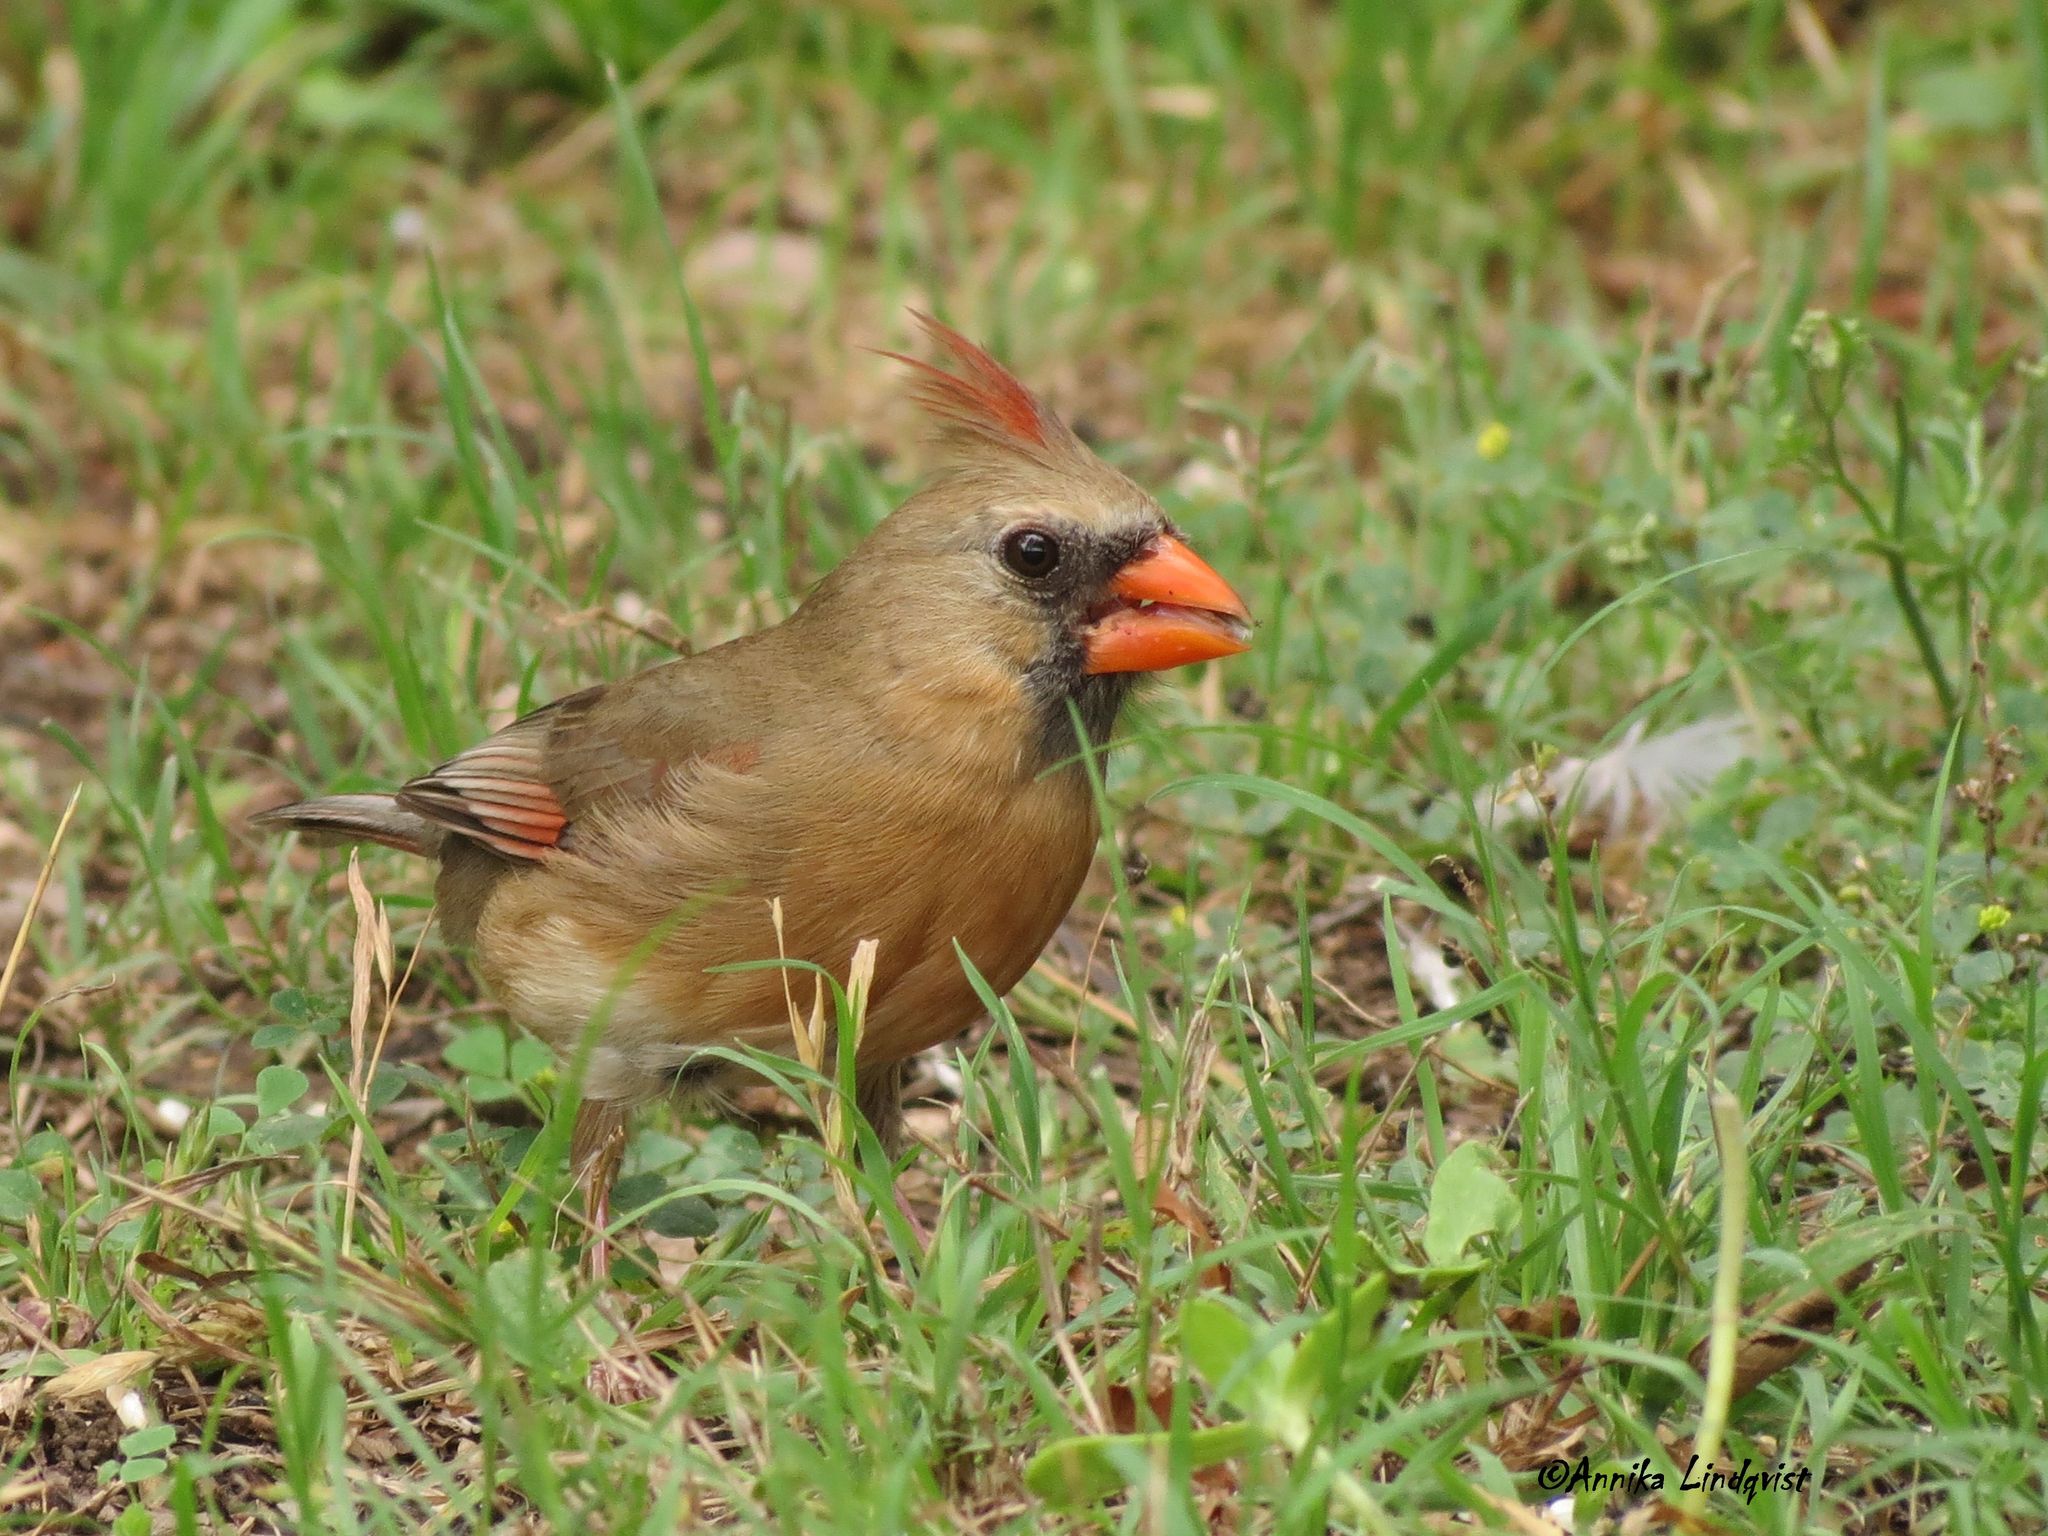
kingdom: Animalia
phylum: Chordata
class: Aves
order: Passeriformes
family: Cardinalidae
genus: Cardinalis
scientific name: Cardinalis cardinalis
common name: Northern cardinal
